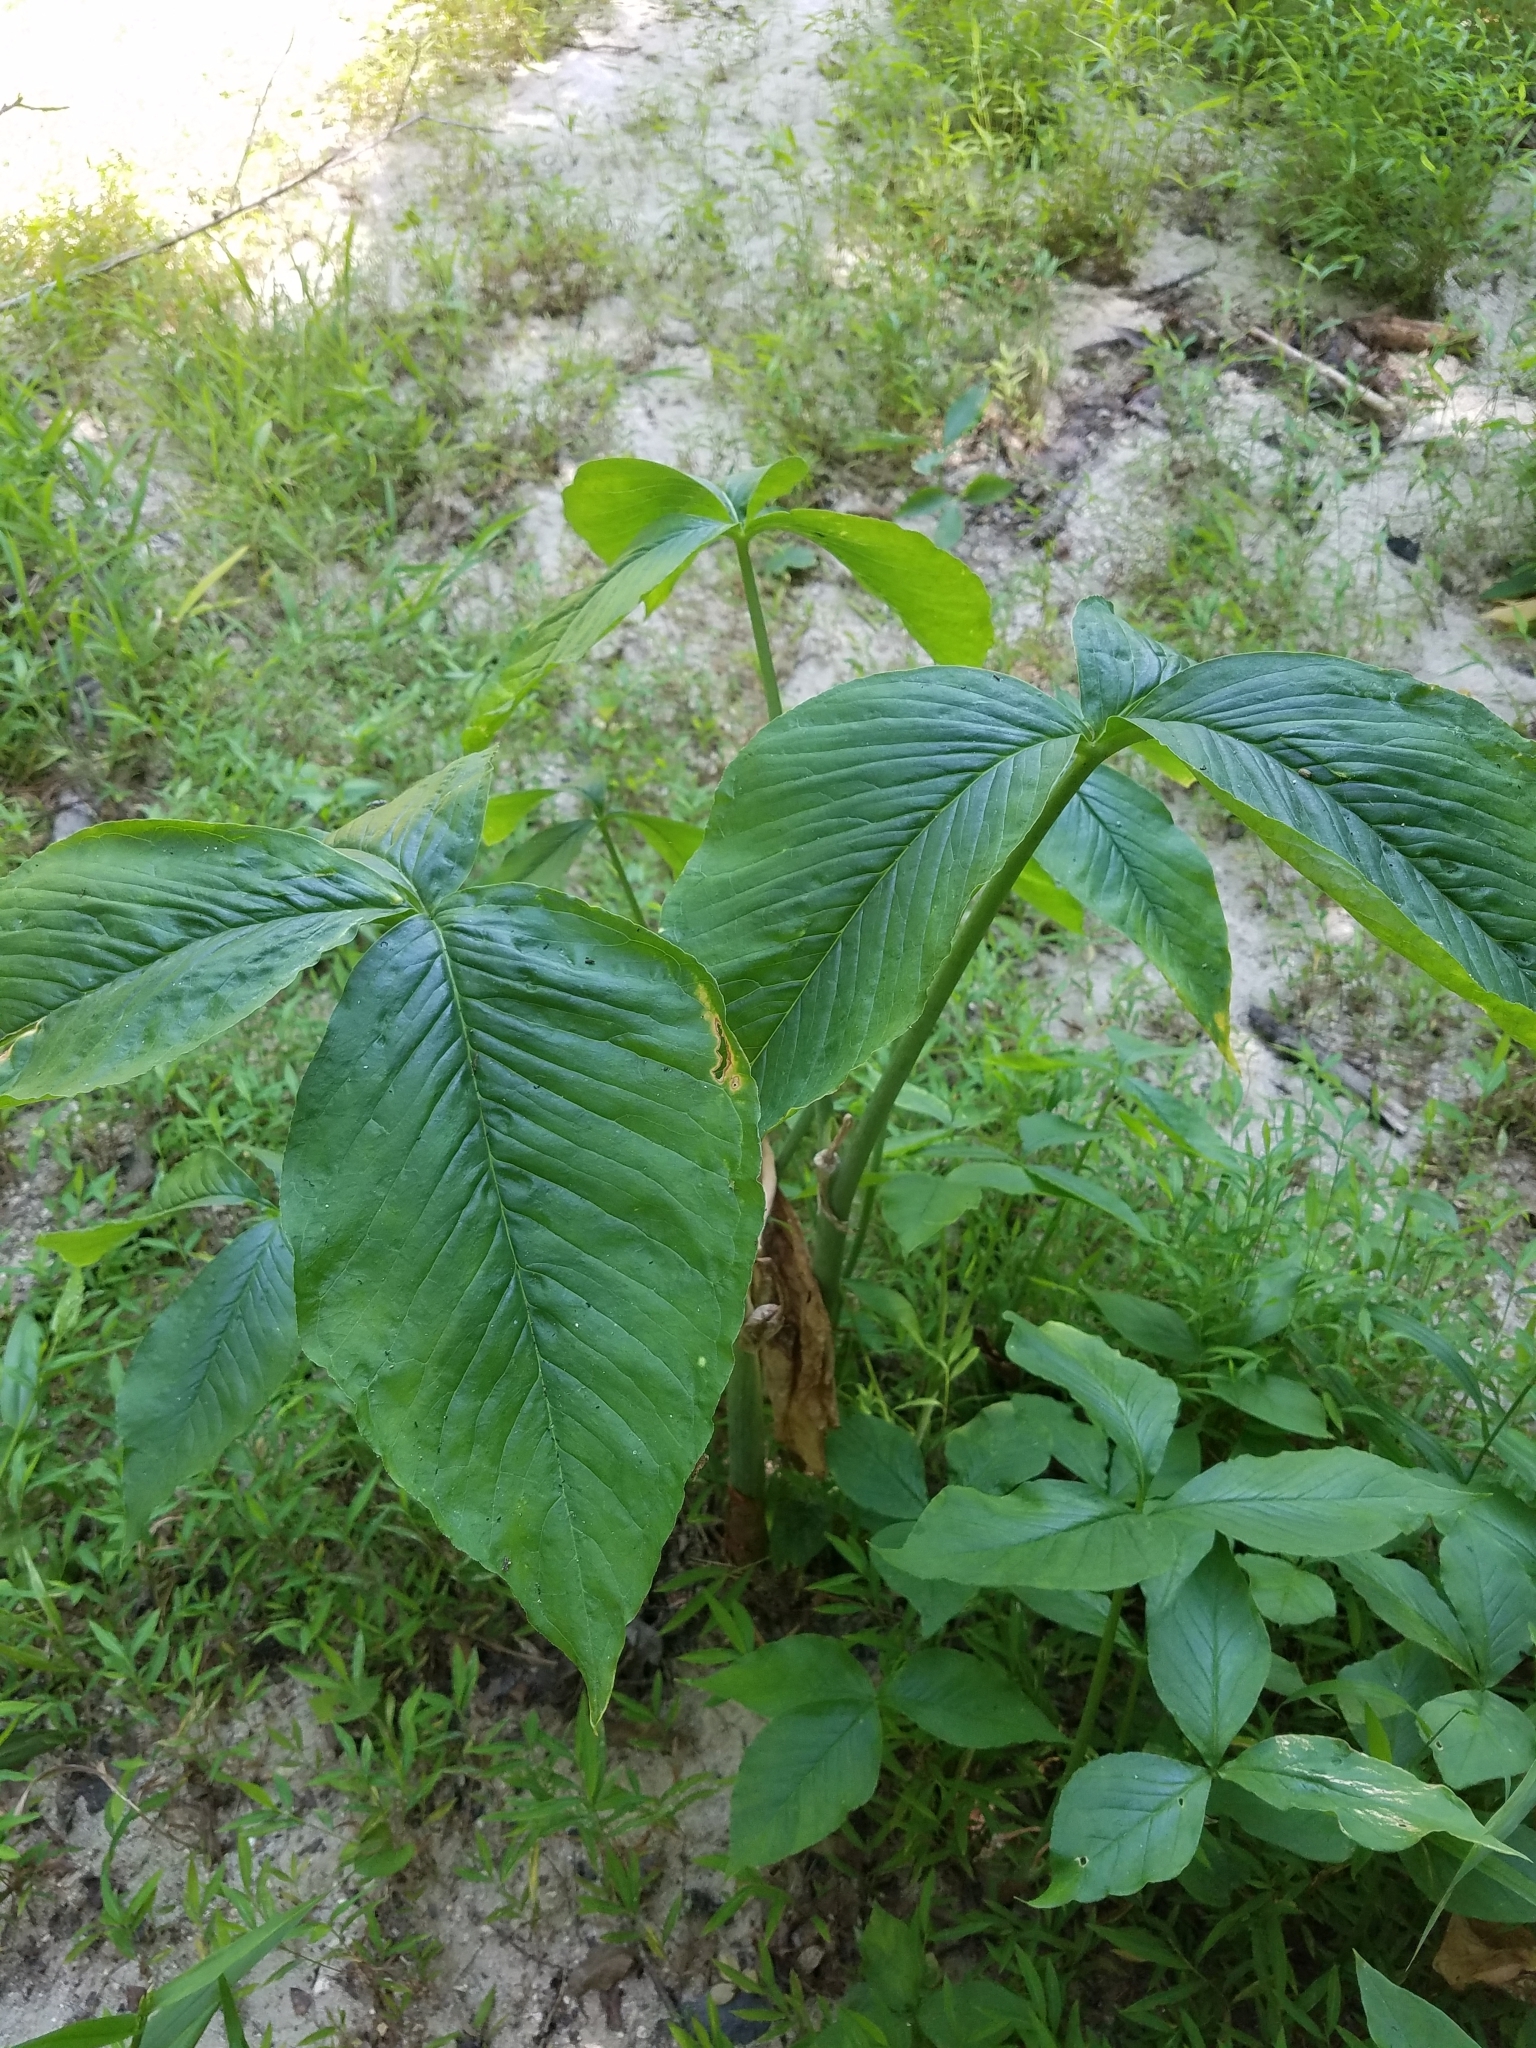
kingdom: Plantae
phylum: Tracheophyta
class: Liliopsida
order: Alismatales
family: Araceae
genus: Arisaema
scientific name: Arisaema triphyllum
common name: Jack-in-the-pulpit
